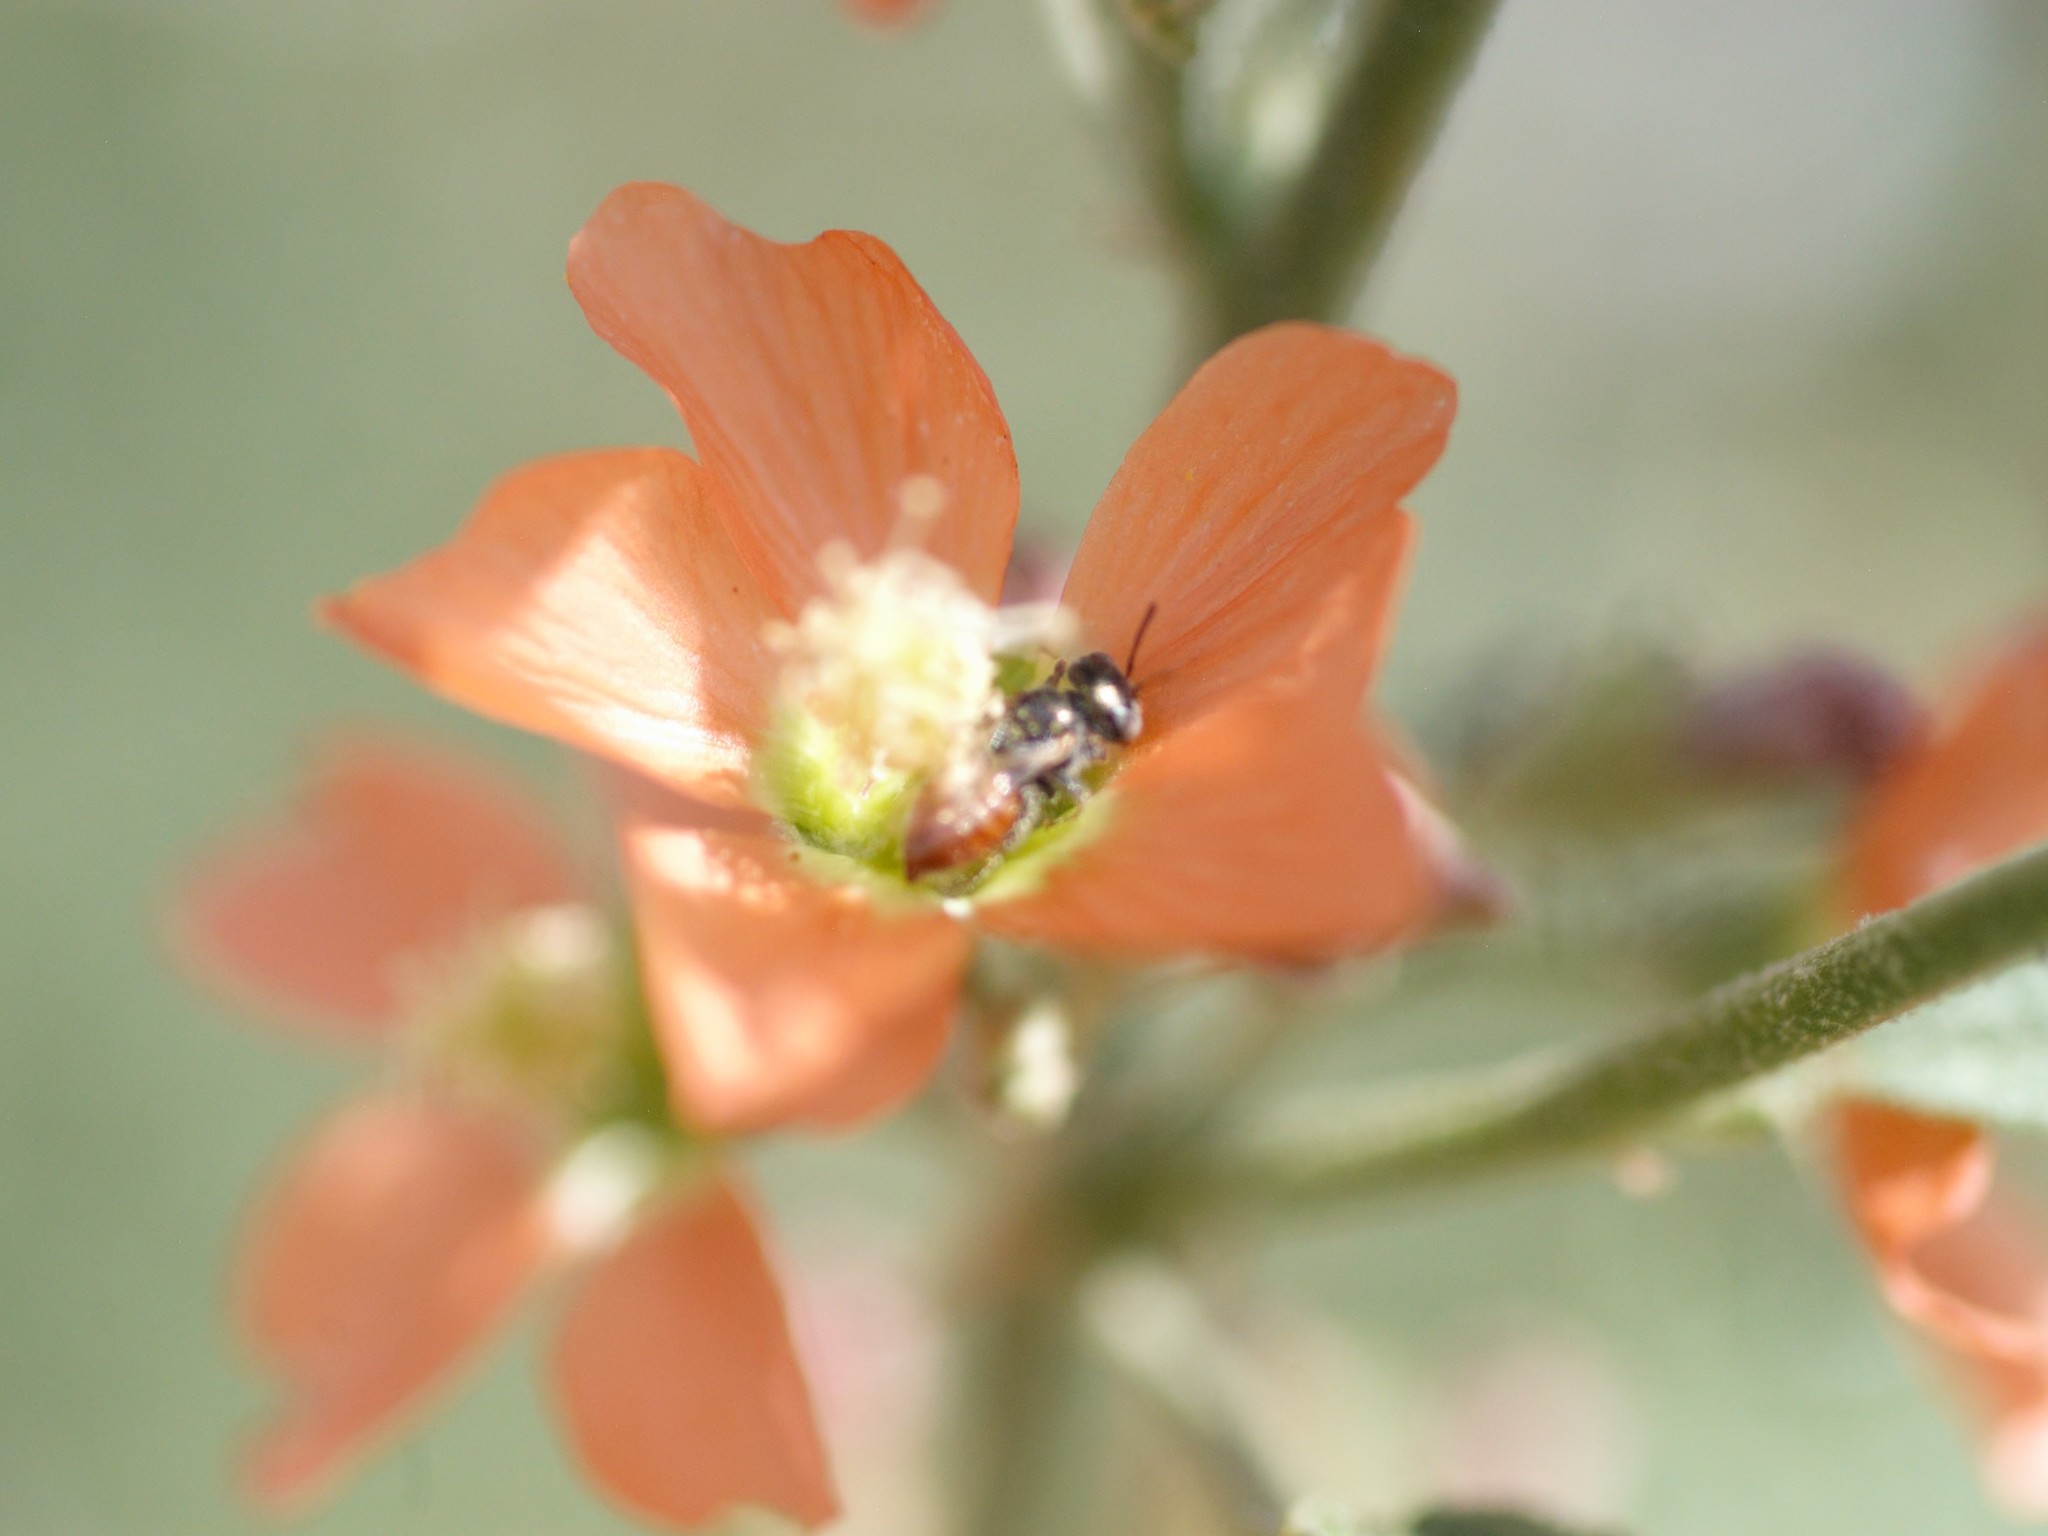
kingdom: Animalia
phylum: Arthropoda
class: Insecta
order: Hymenoptera
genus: Macroteropsis
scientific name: Macroteropsis
